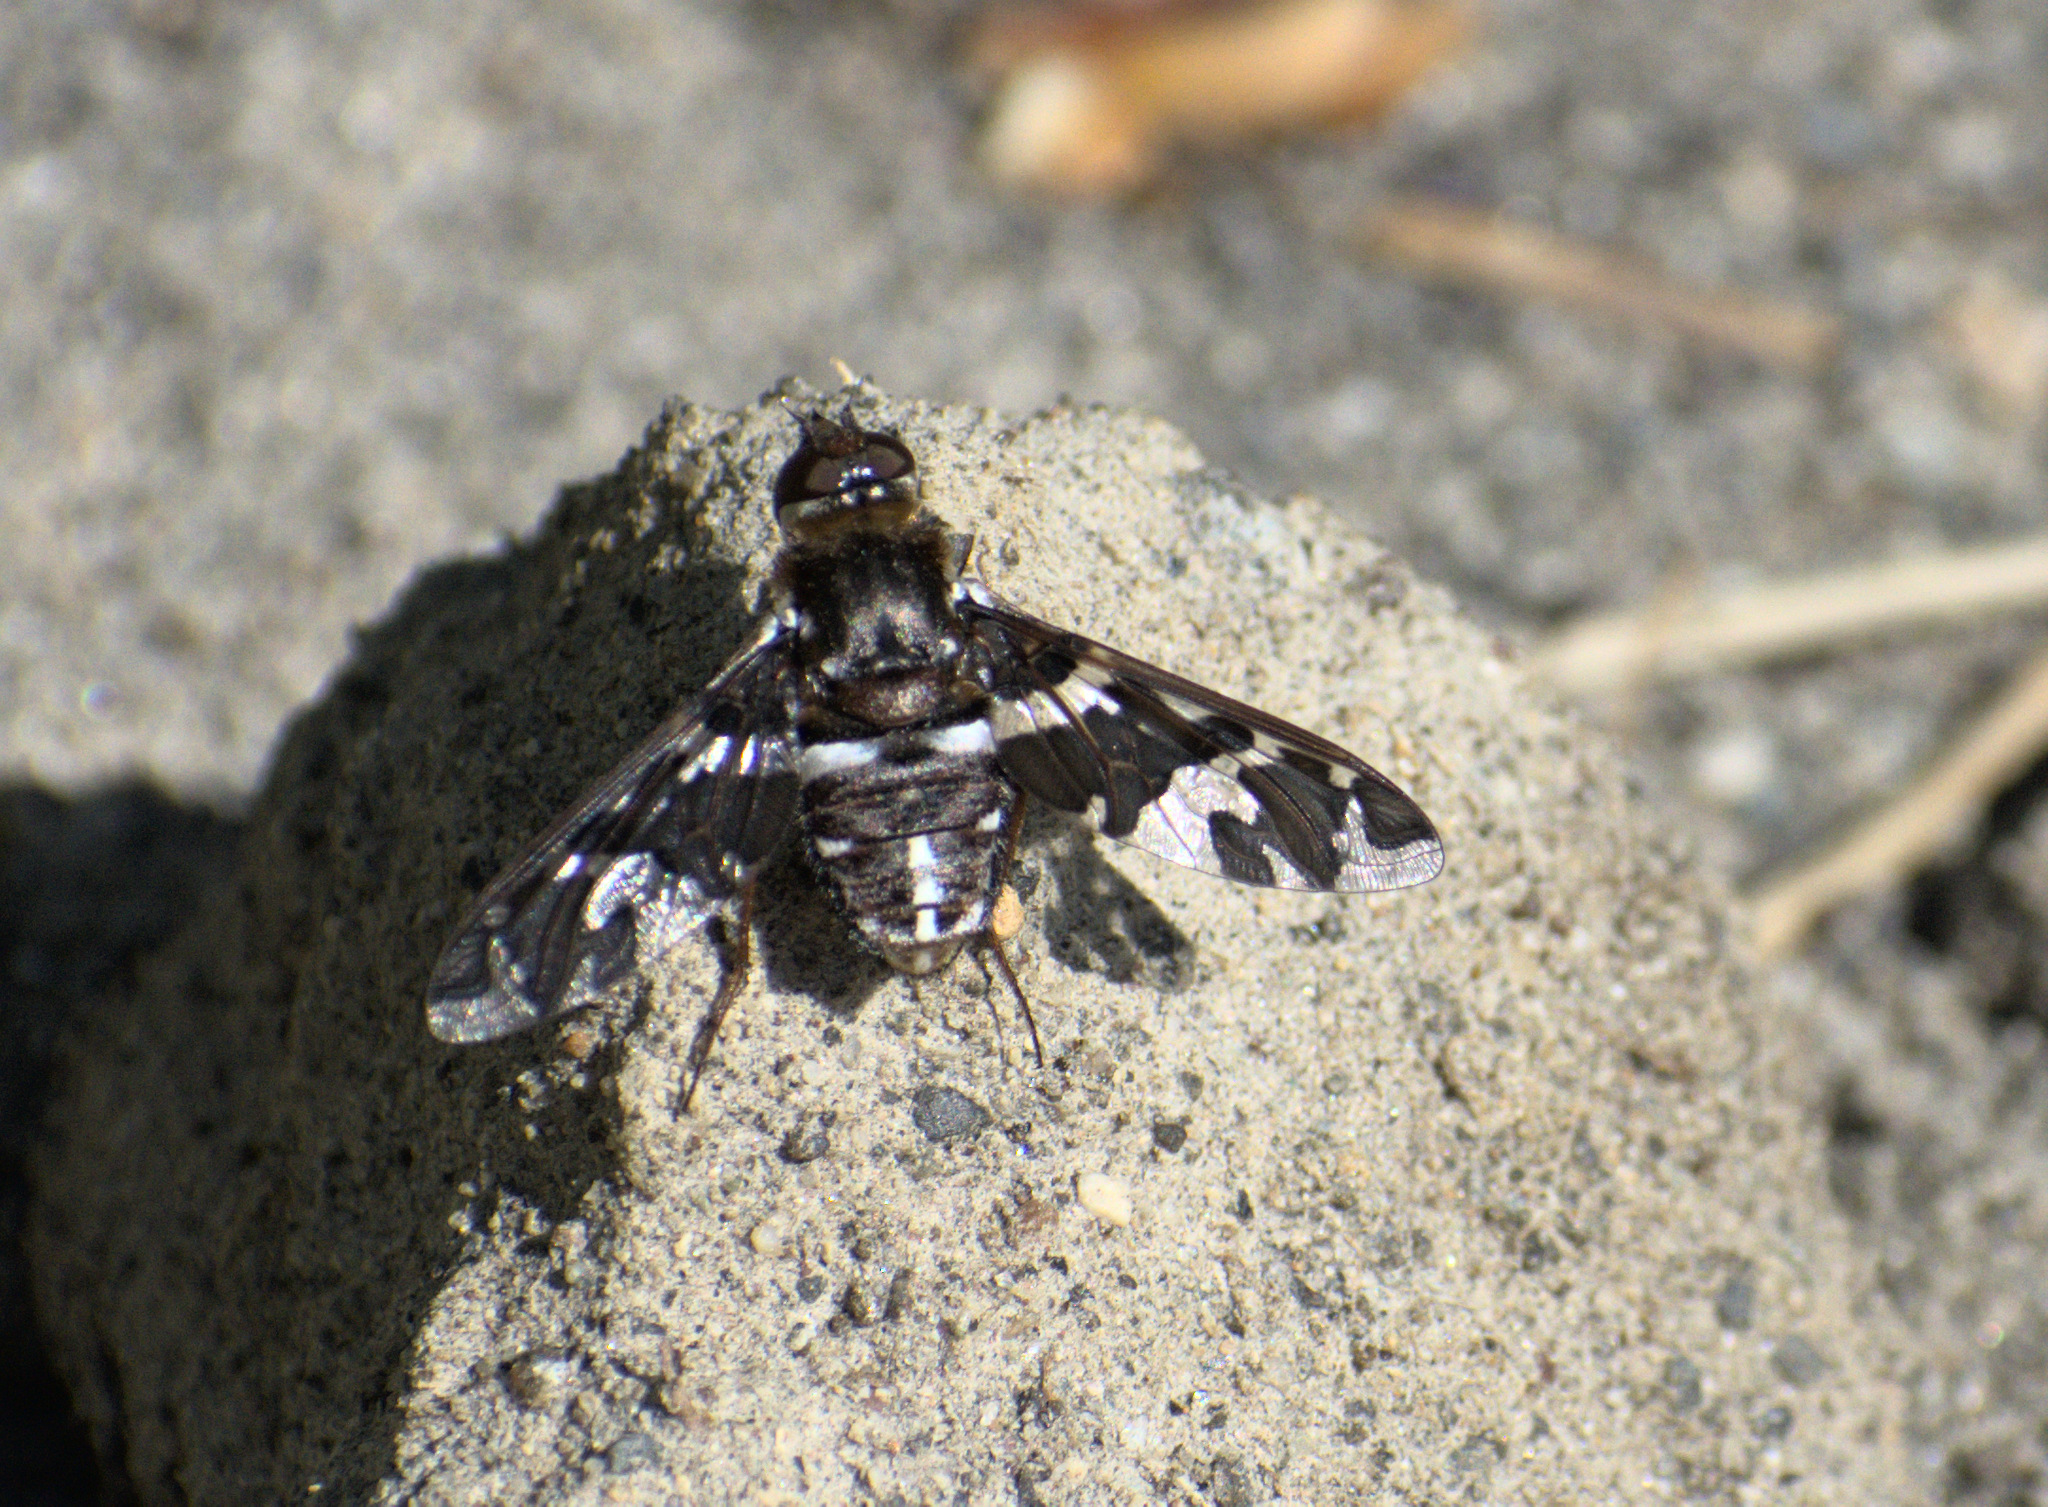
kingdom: Animalia
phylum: Arthropoda
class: Insecta
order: Diptera
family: Bombyliidae
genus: Exoprosopa
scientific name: Exoprosopa caliptera
